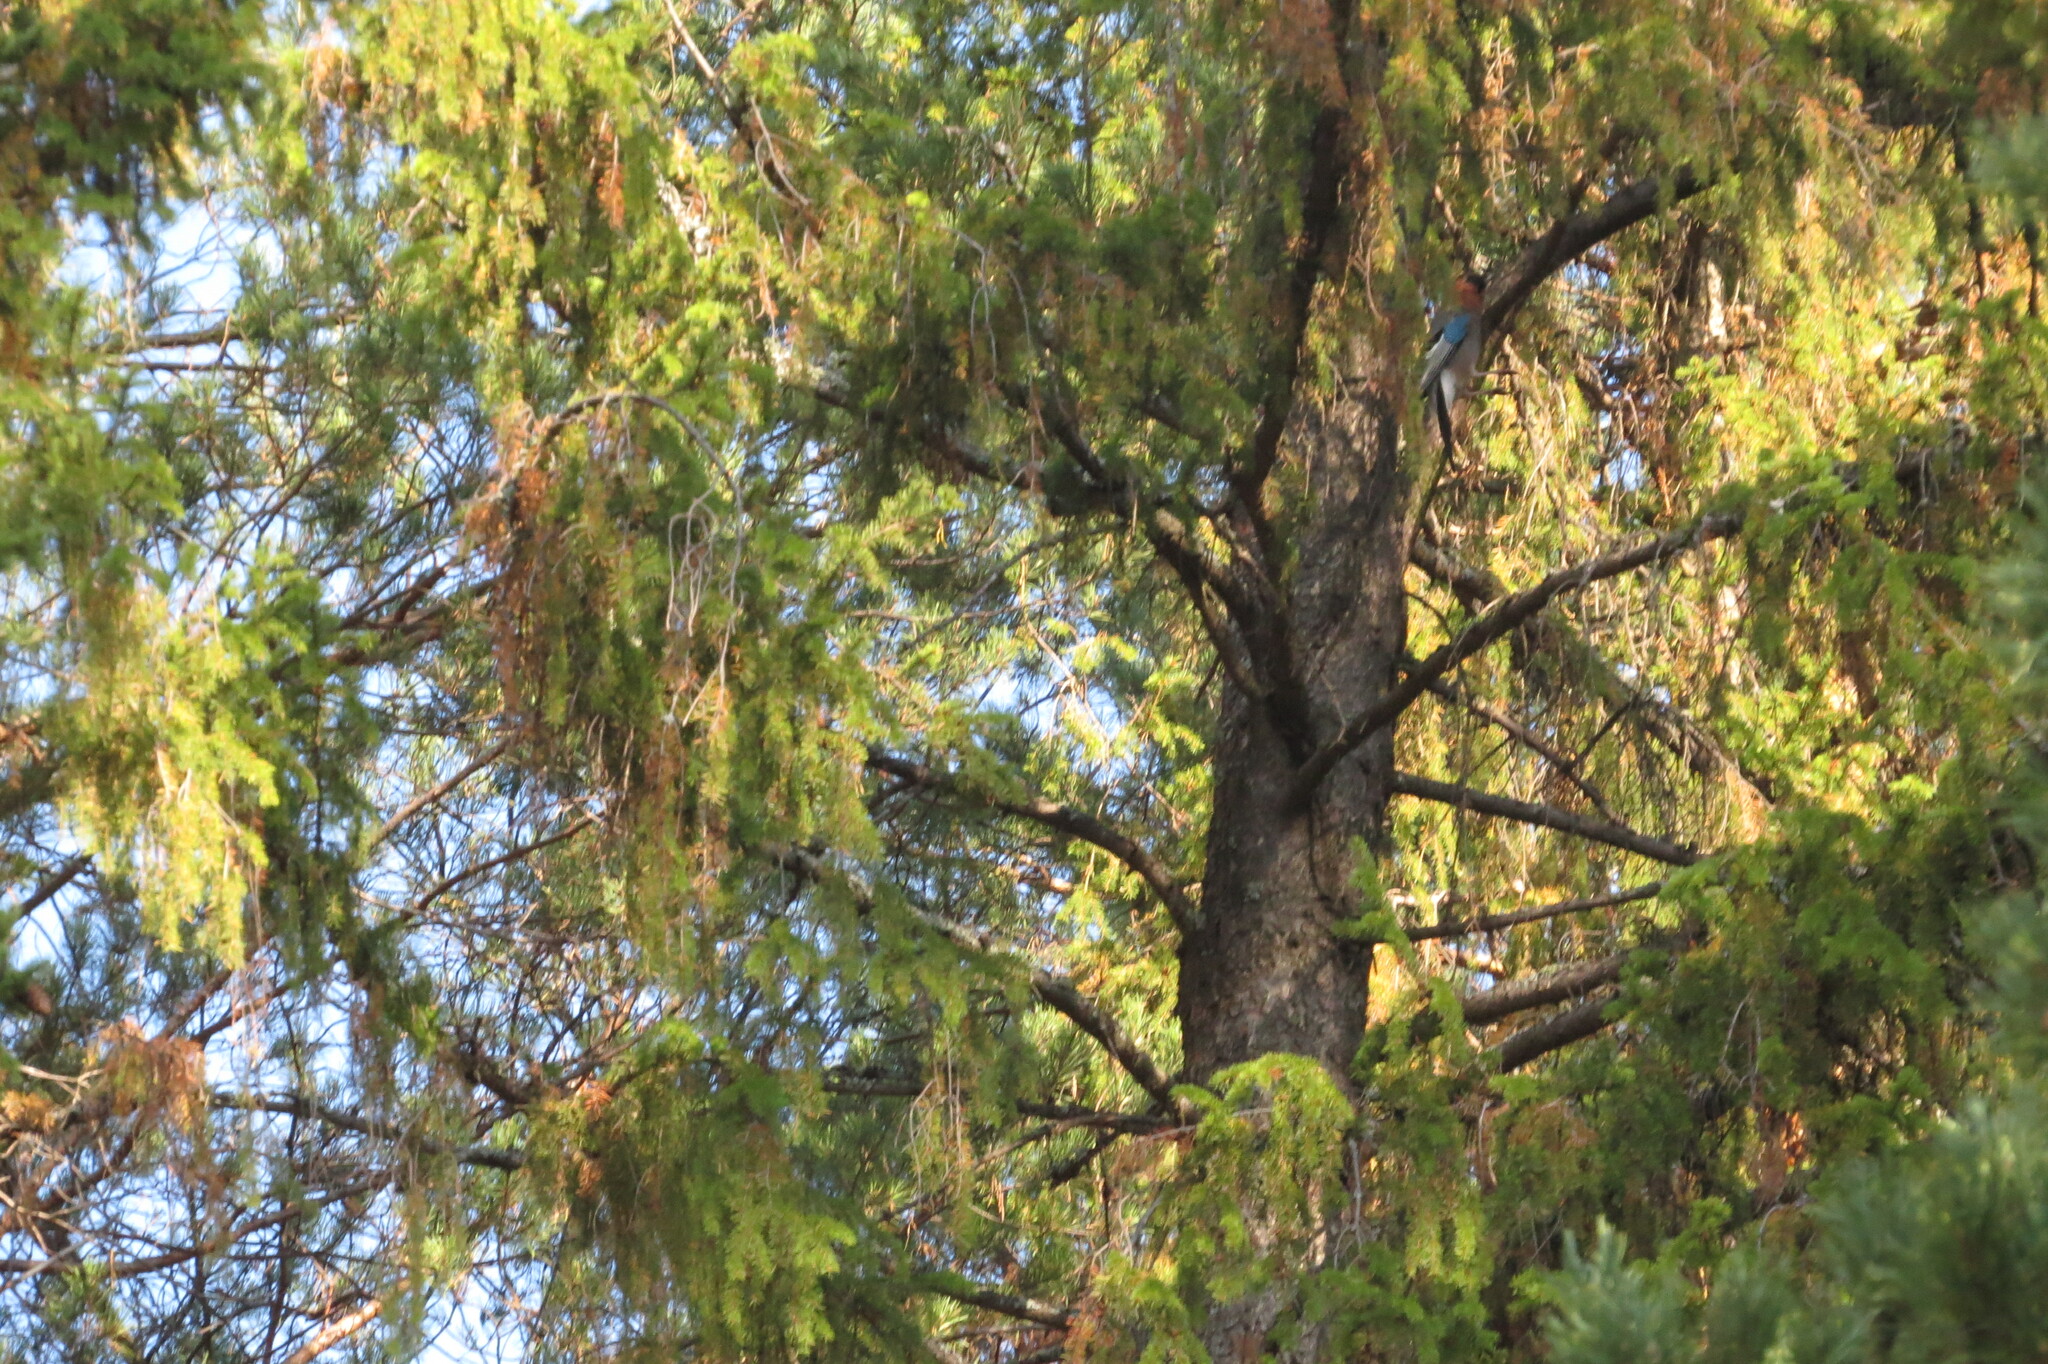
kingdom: Animalia
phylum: Chordata
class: Aves
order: Passeriformes
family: Corvidae
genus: Garrulus
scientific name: Garrulus glandarius
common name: Eurasian jay
